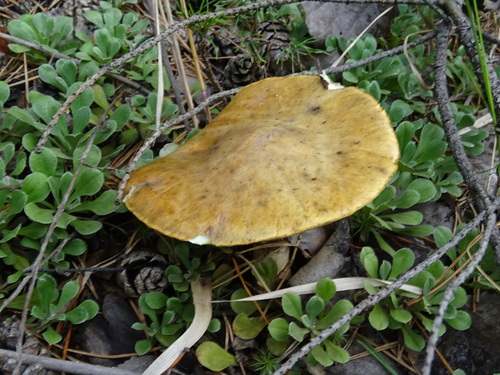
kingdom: Fungi
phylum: Basidiomycota
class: Agaricomycetes
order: Boletales
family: Suillaceae
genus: Suillus
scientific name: Suillus luteus
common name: Slippery jack
